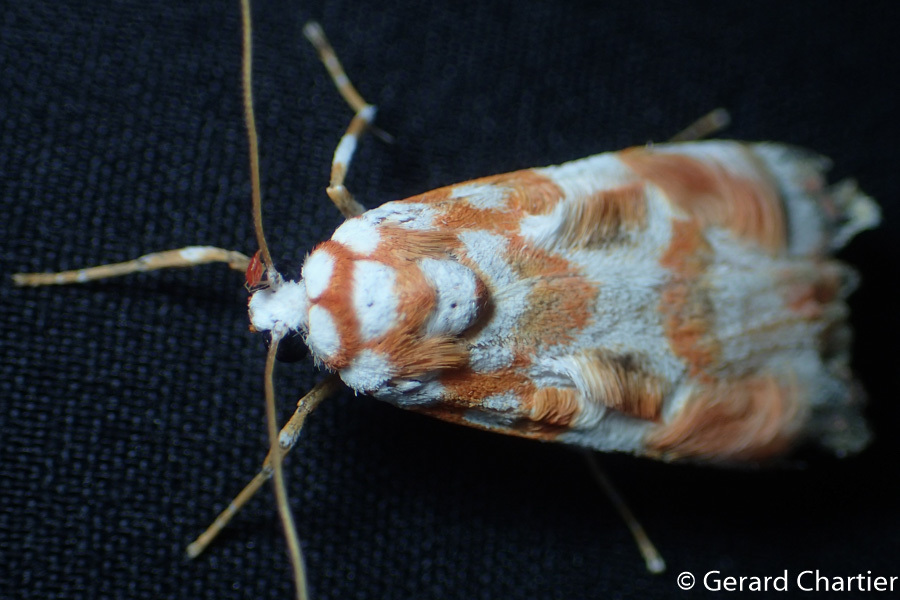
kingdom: Animalia
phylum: Arthropoda
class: Insecta
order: Lepidoptera
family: Erebidae
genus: Cyana
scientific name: Cyana costifimbria
